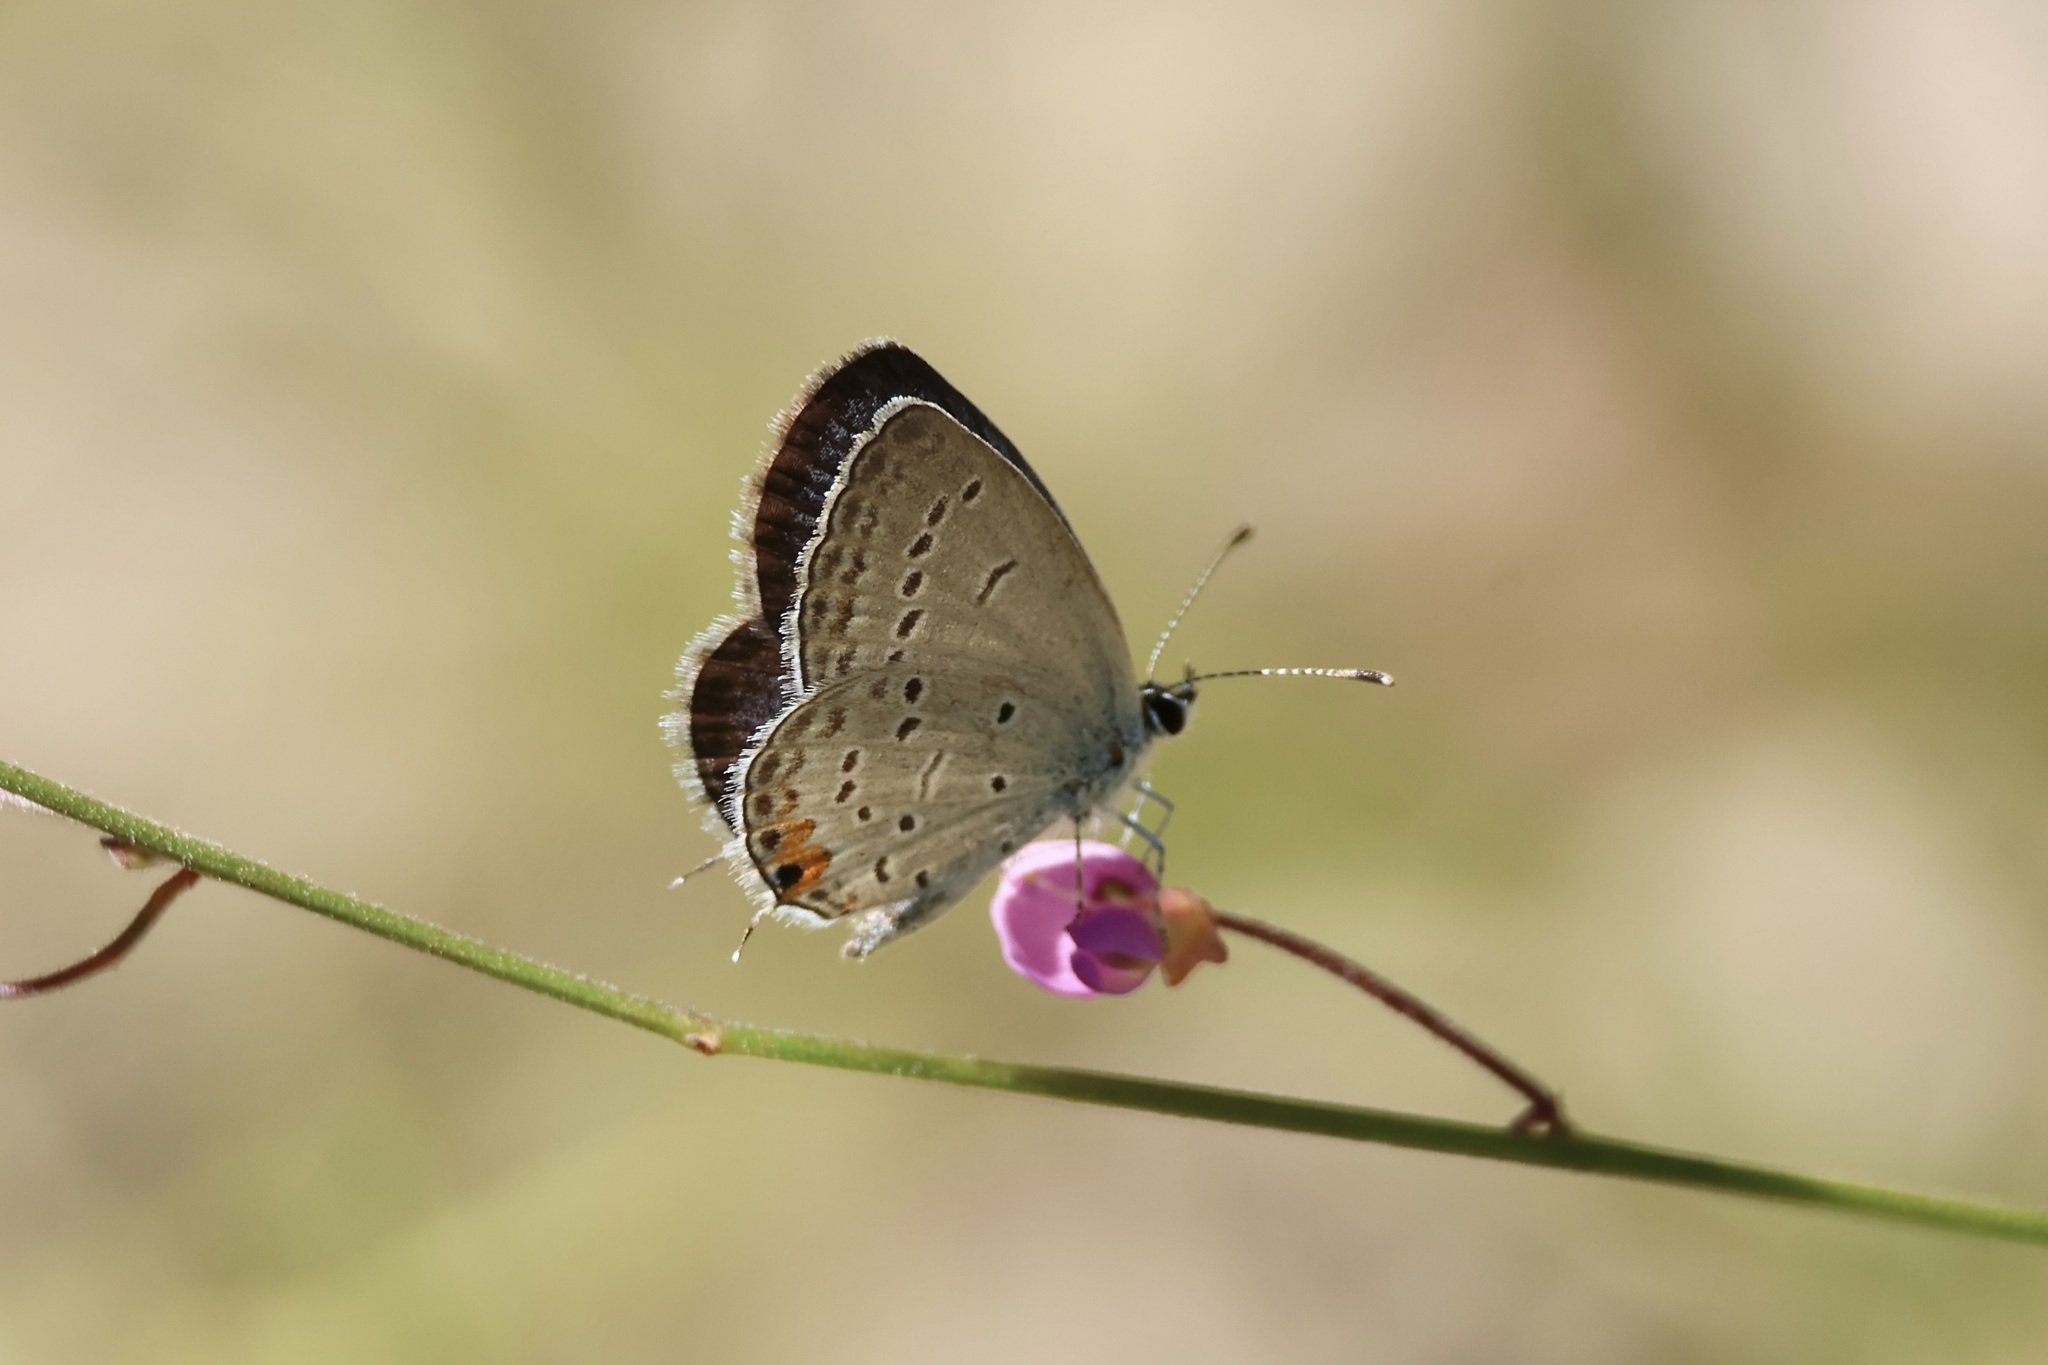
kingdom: Animalia
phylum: Arthropoda
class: Insecta
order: Lepidoptera
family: Lycaenidae
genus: Elkalyce
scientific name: Elkalyce comyntas
